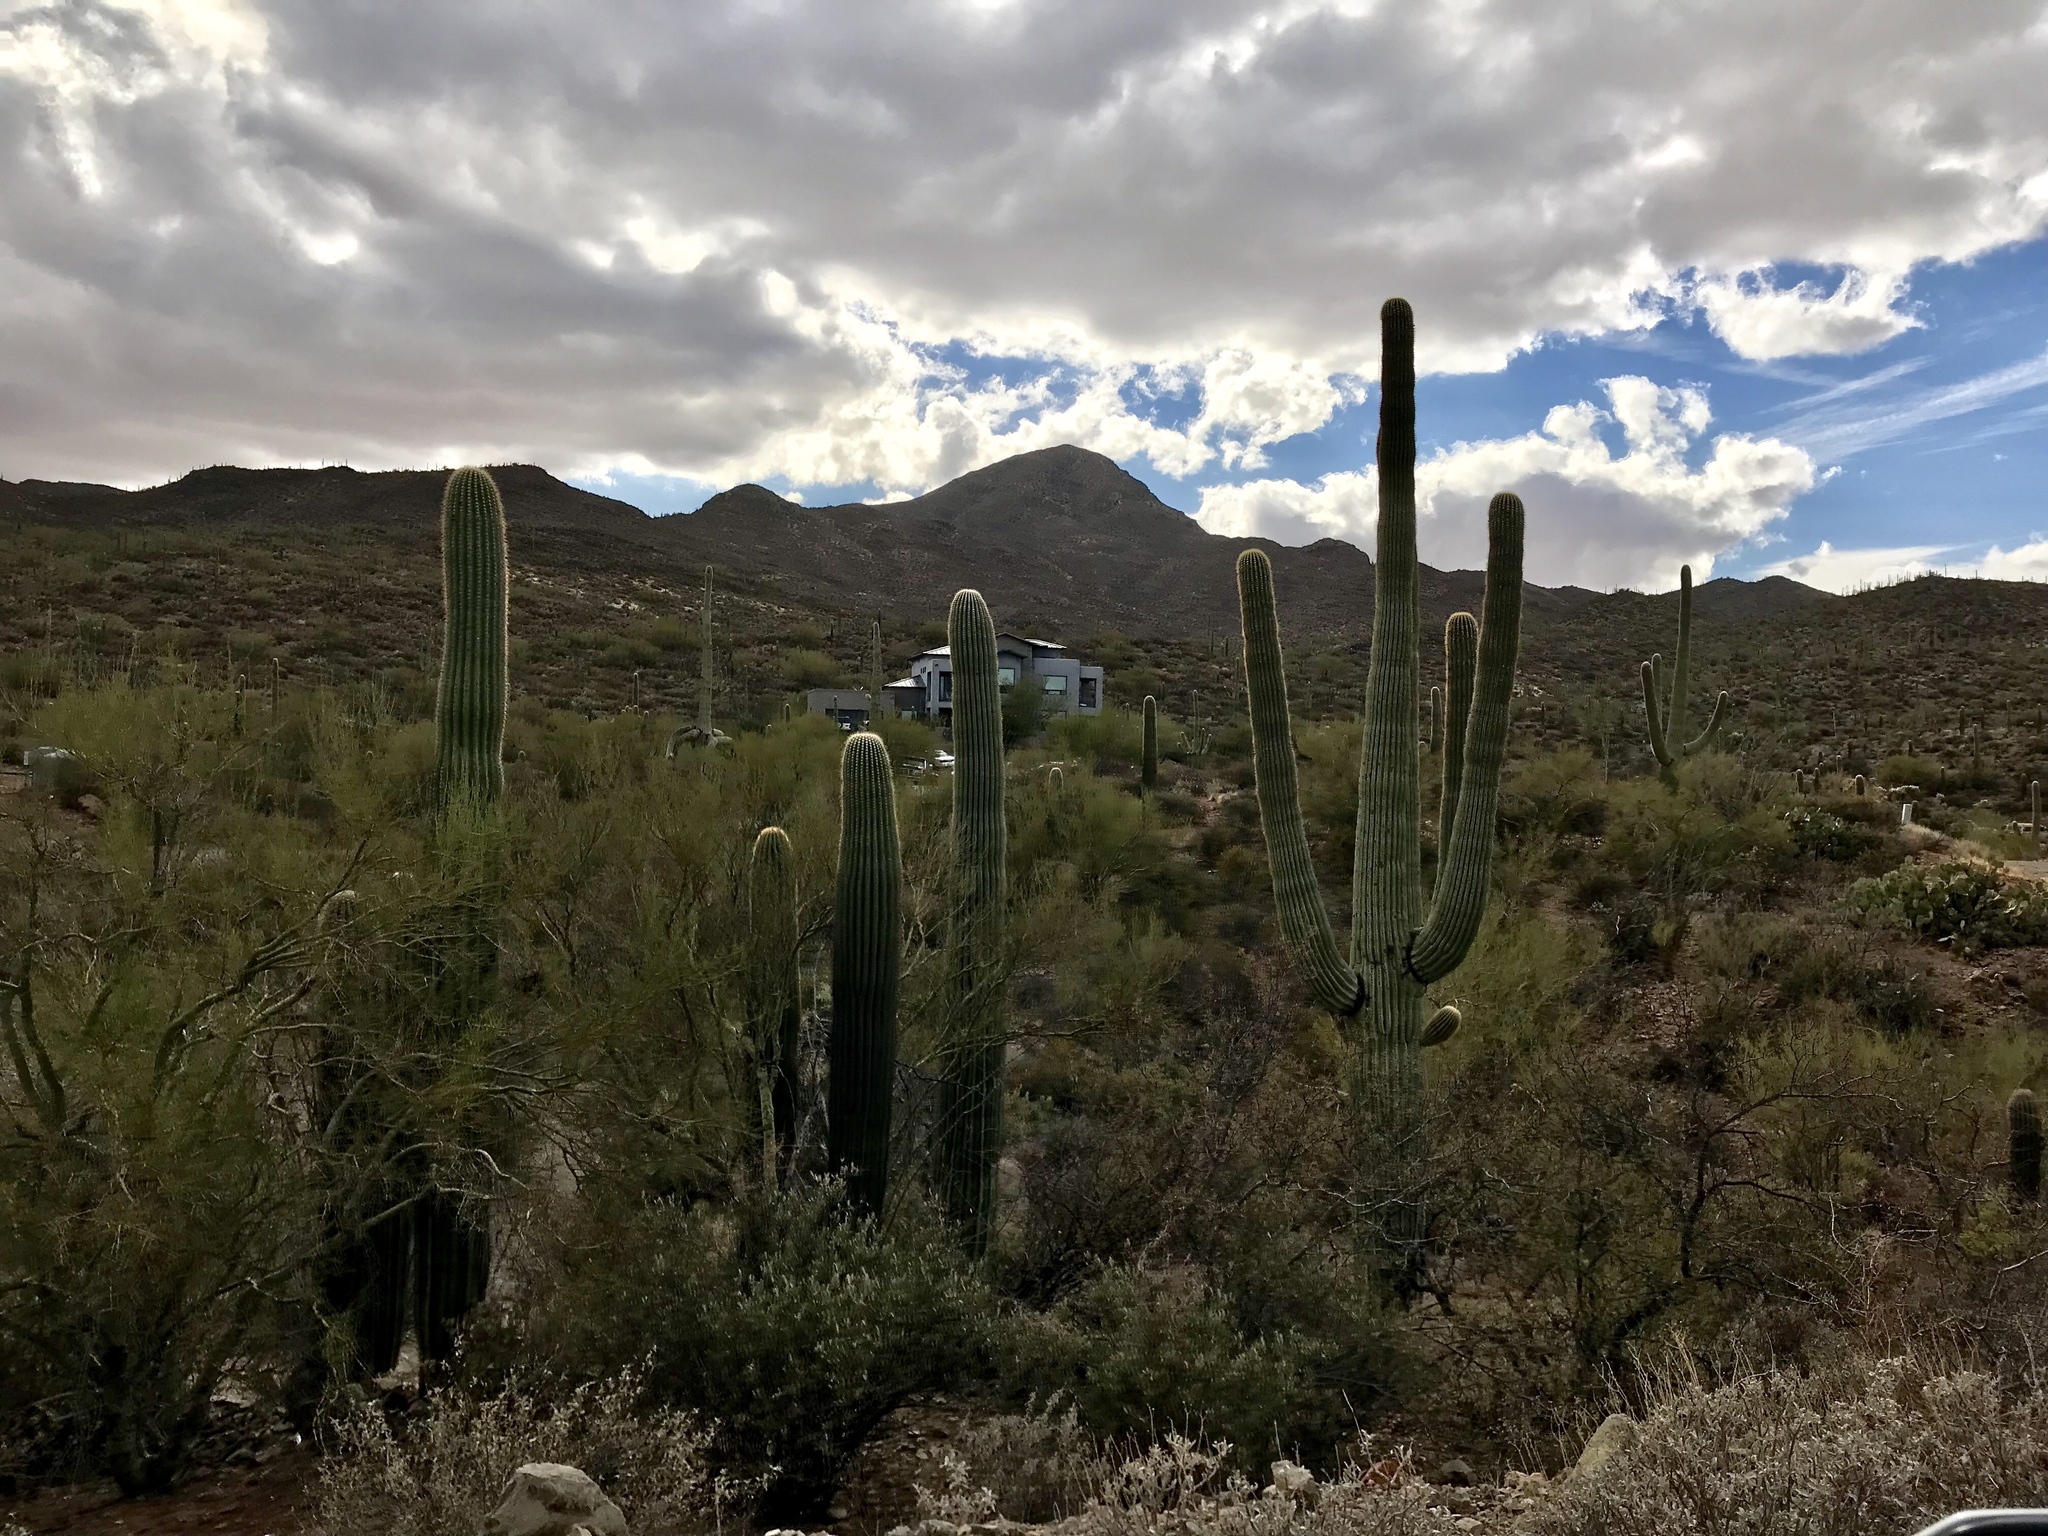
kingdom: Plantae
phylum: Tracheophyta
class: Magnoliopsida
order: Caryophyllales
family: Cactaceae
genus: Carnegiea
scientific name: Carnegiea gigantea
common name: Saguaro
